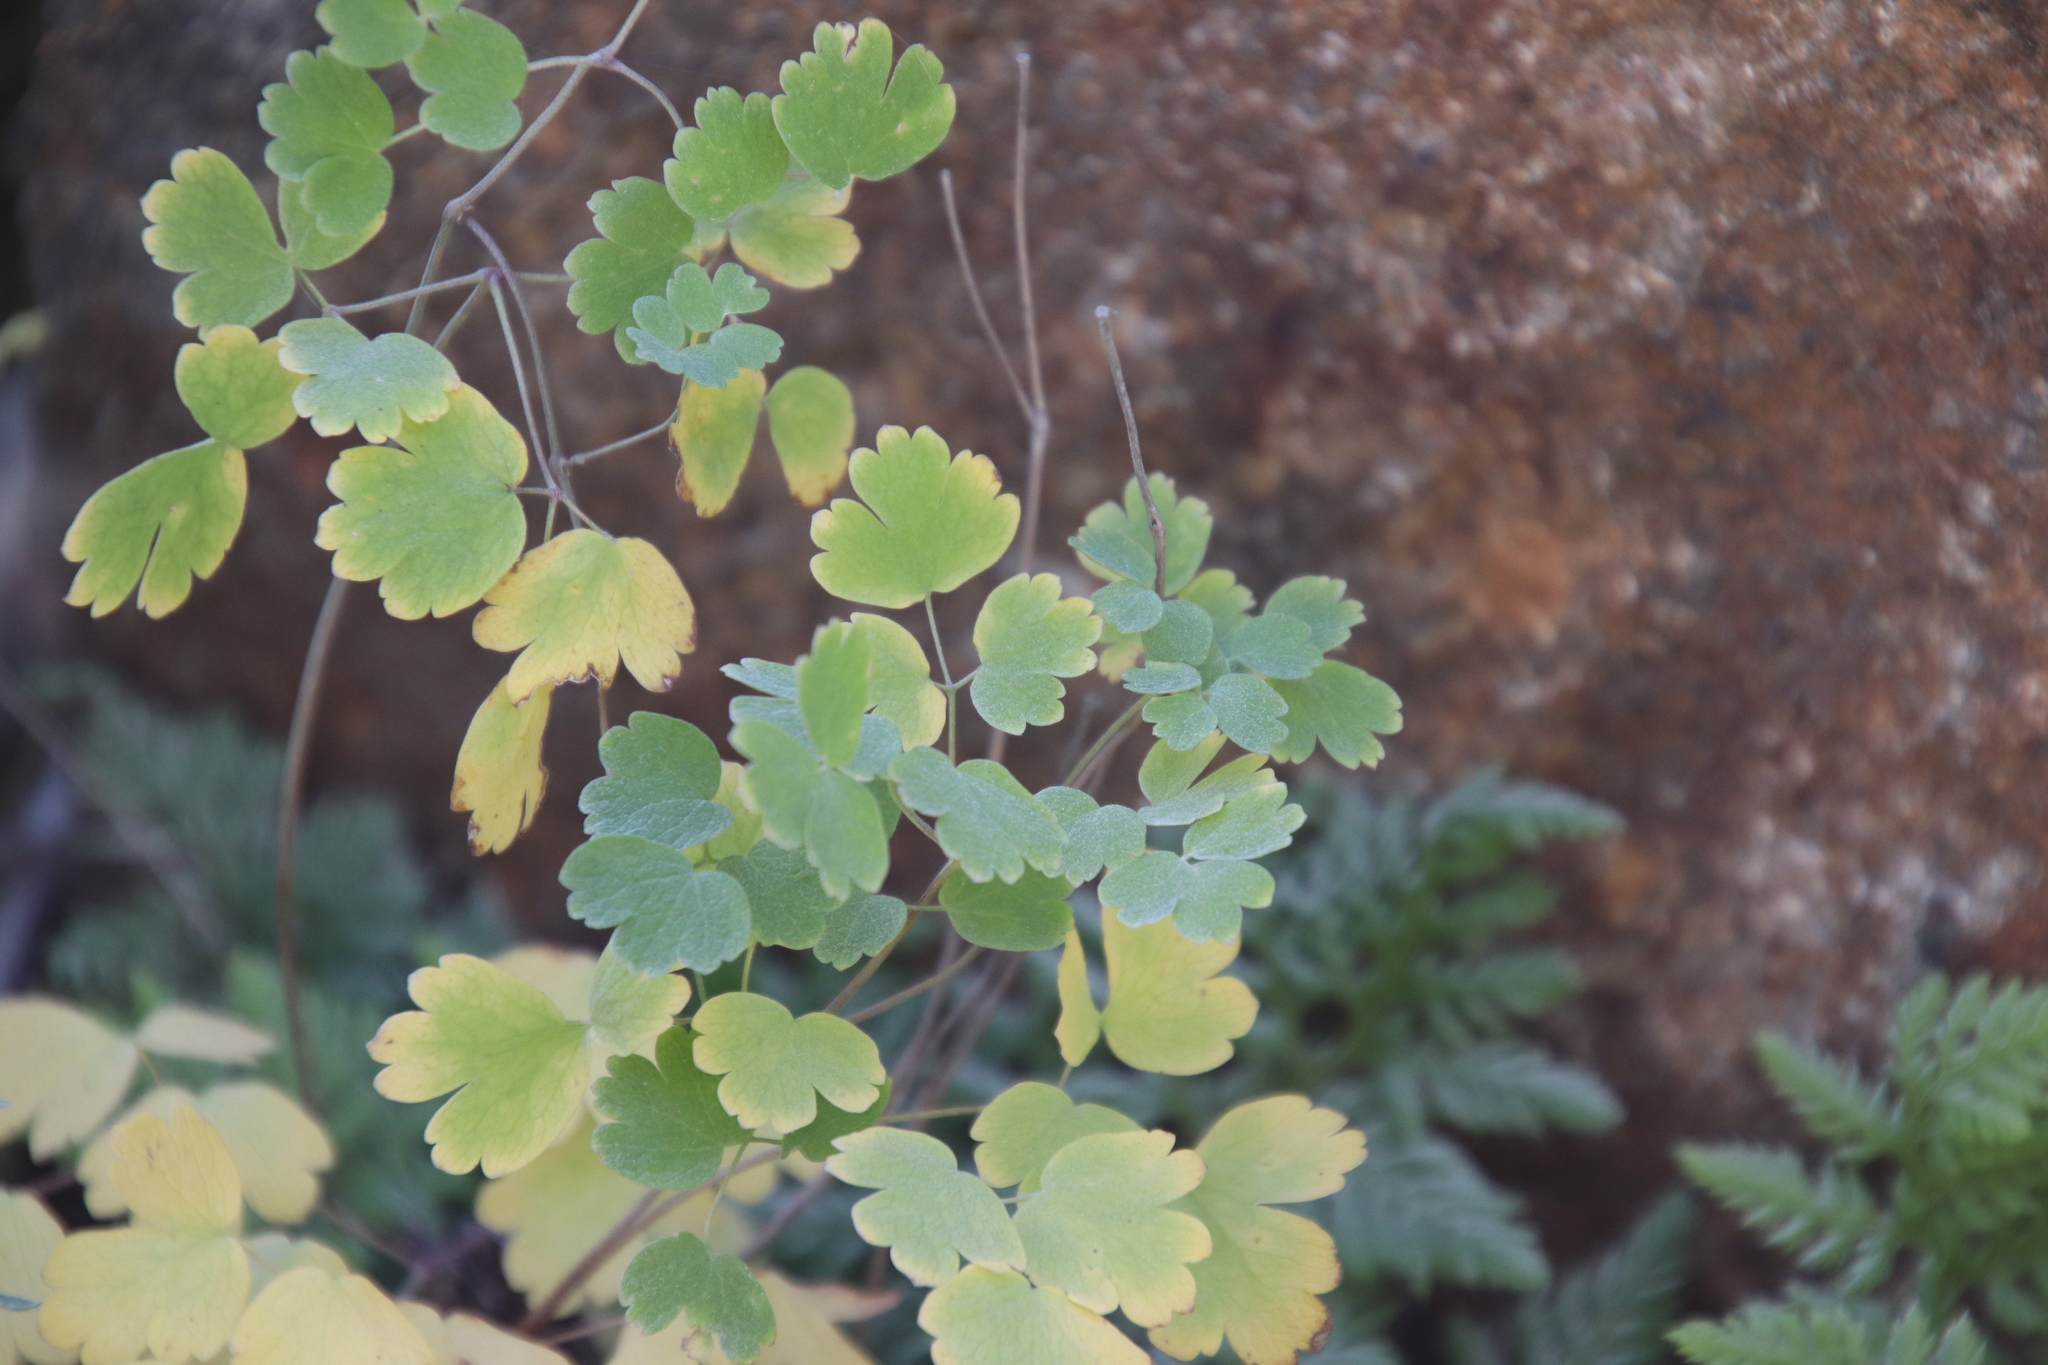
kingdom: Plantae
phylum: Tracheophyta
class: Magnoliopsida
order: Ranunculales
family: Ranunculaceae
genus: Thalictrum
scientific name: Thalictrum fendleri
